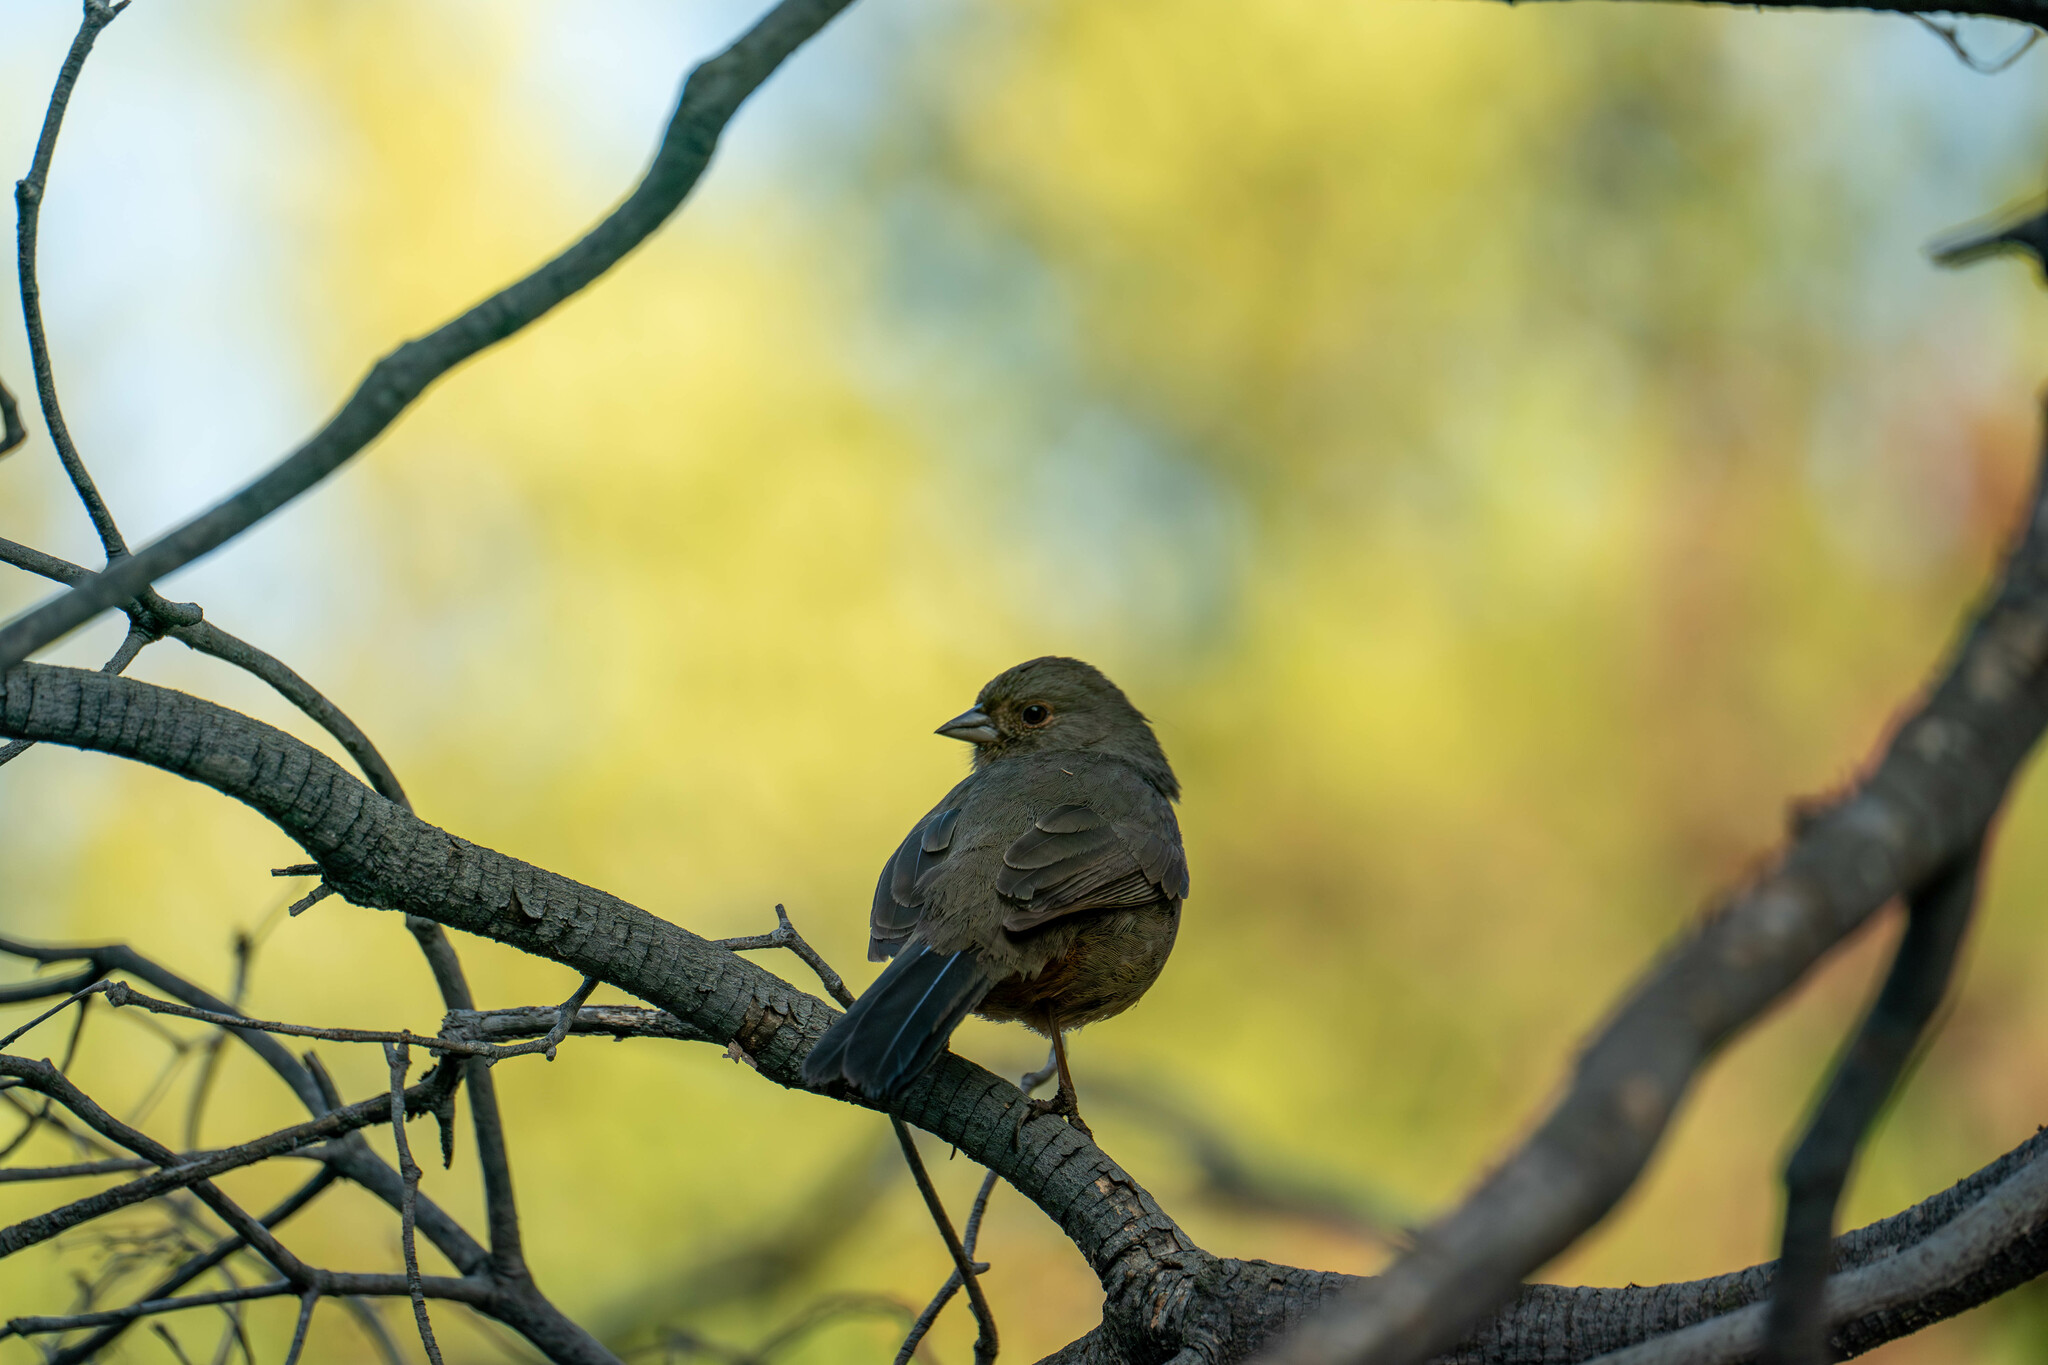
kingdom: Animalia
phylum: Chordata
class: Aves
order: Passeriformes
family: Passerellidae
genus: Melozone
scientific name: Melozone crissalis
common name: California towhee
